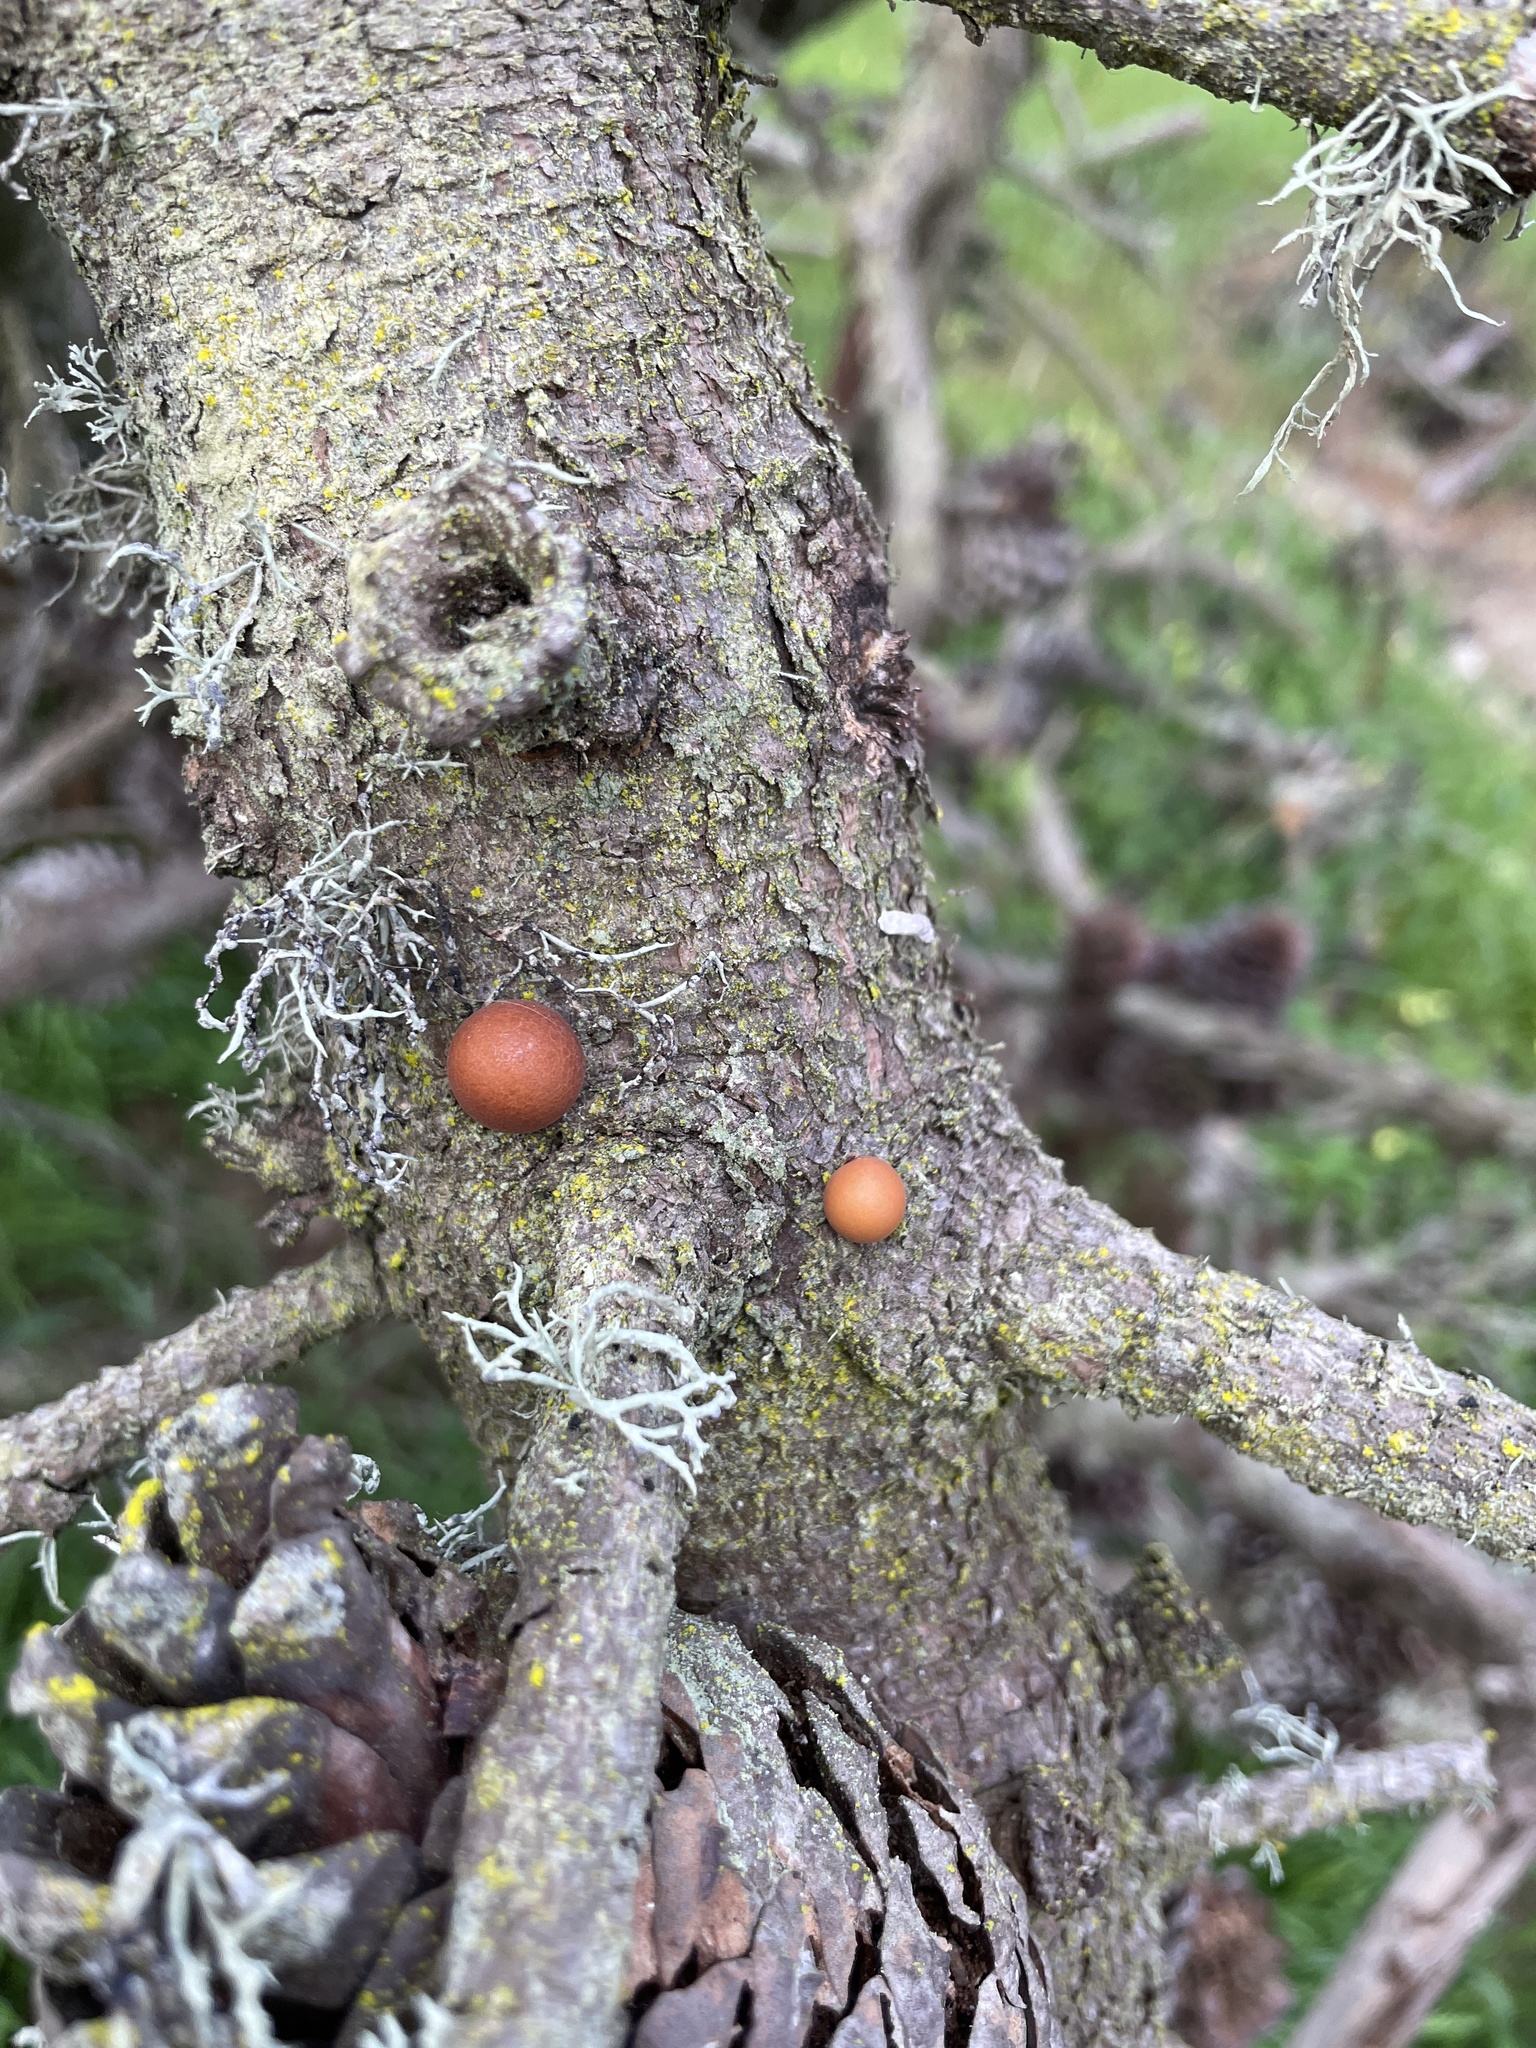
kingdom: Fungi
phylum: Basidiomycota
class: Agaricomycetes
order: Polyporales
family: Polyporaceae
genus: Cryptoporus
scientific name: Cryptoporus volvatus
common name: Veiled polypore
